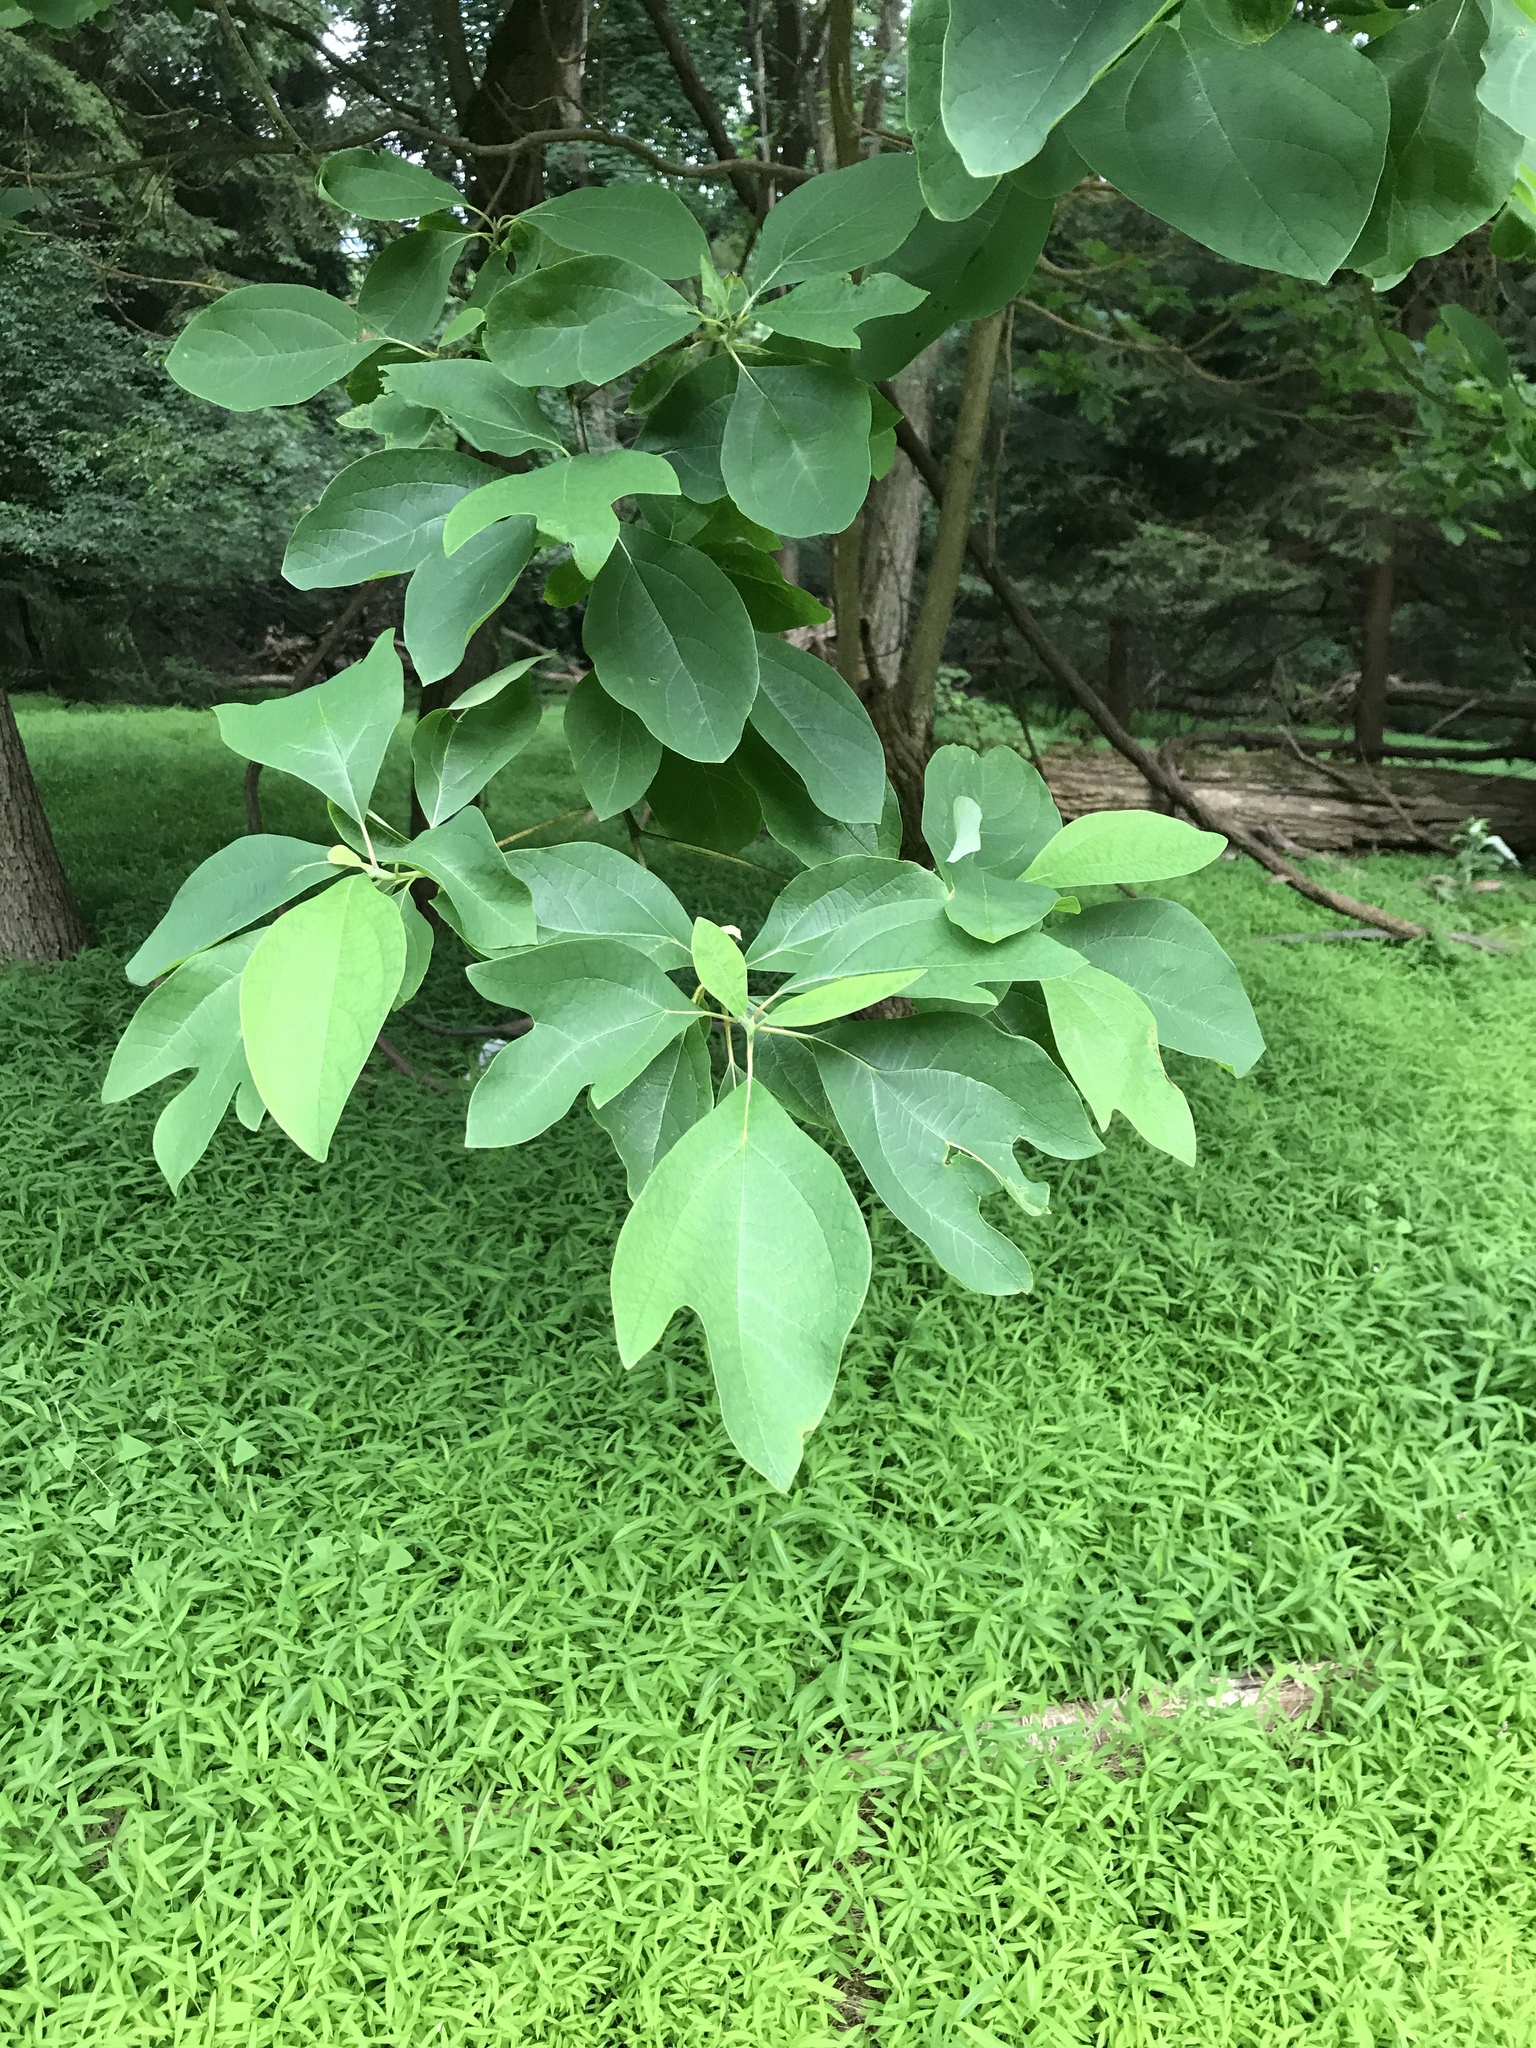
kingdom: Plantae
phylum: Tracheophyta
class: Magnoliopsida
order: Laurales
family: Lauraceae
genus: Sassafras
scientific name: Sassafras albidum
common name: Sassafras
